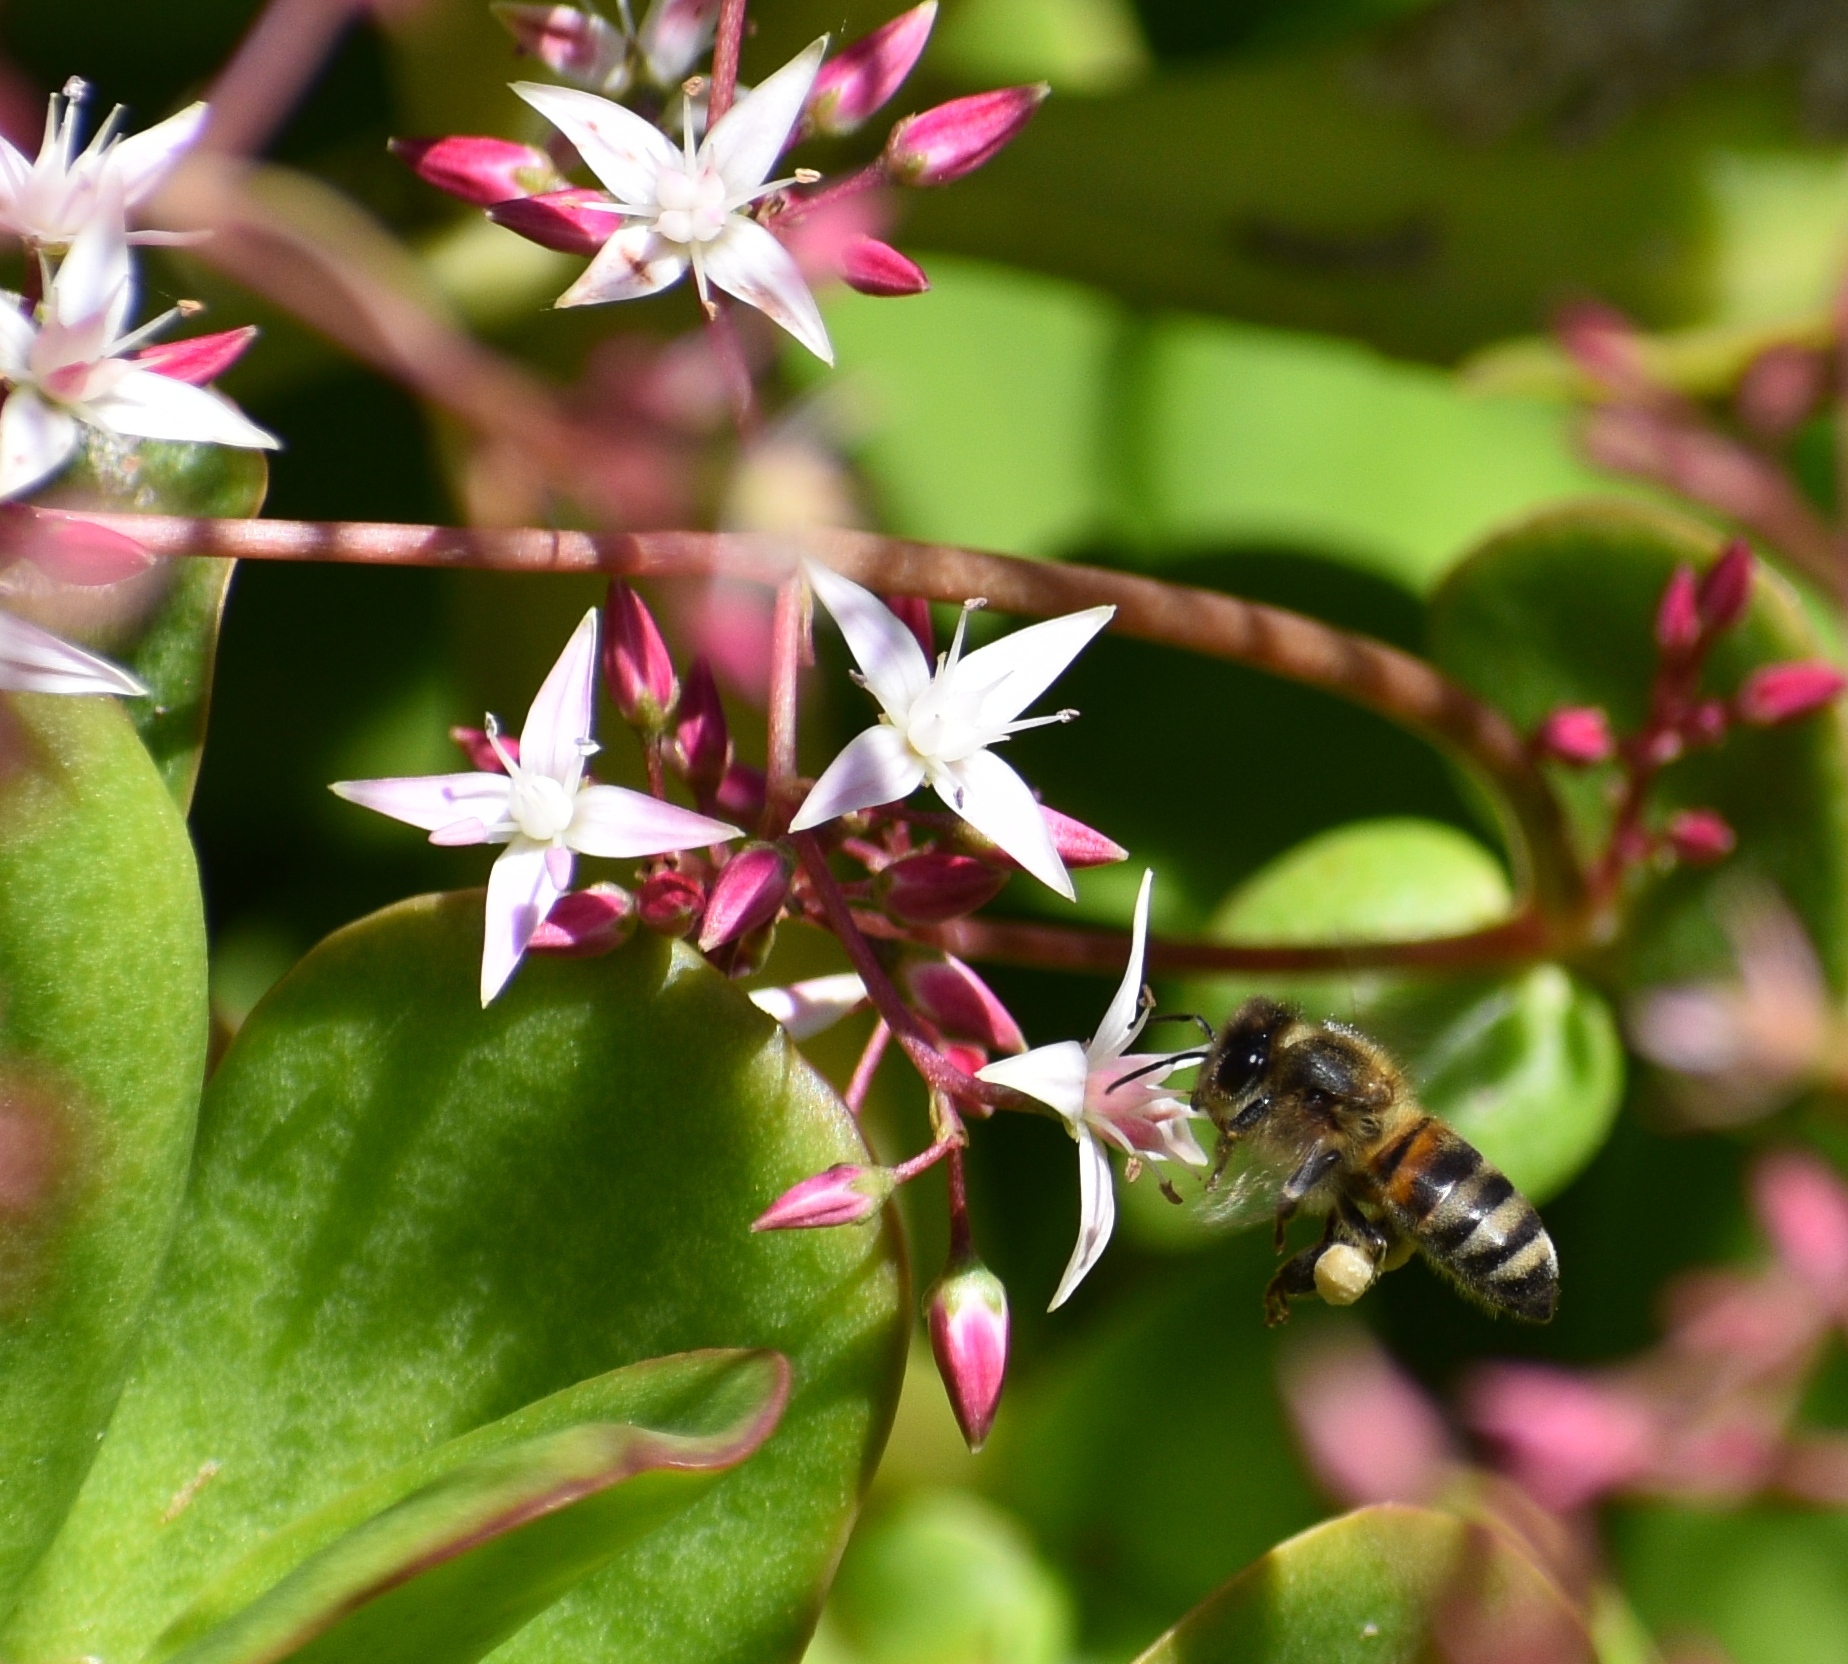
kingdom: Animalia
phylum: Arthropoda
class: Insecta
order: Hymenoptera
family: Apidae
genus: Apis
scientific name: Apis mellifera
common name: Honey bee
